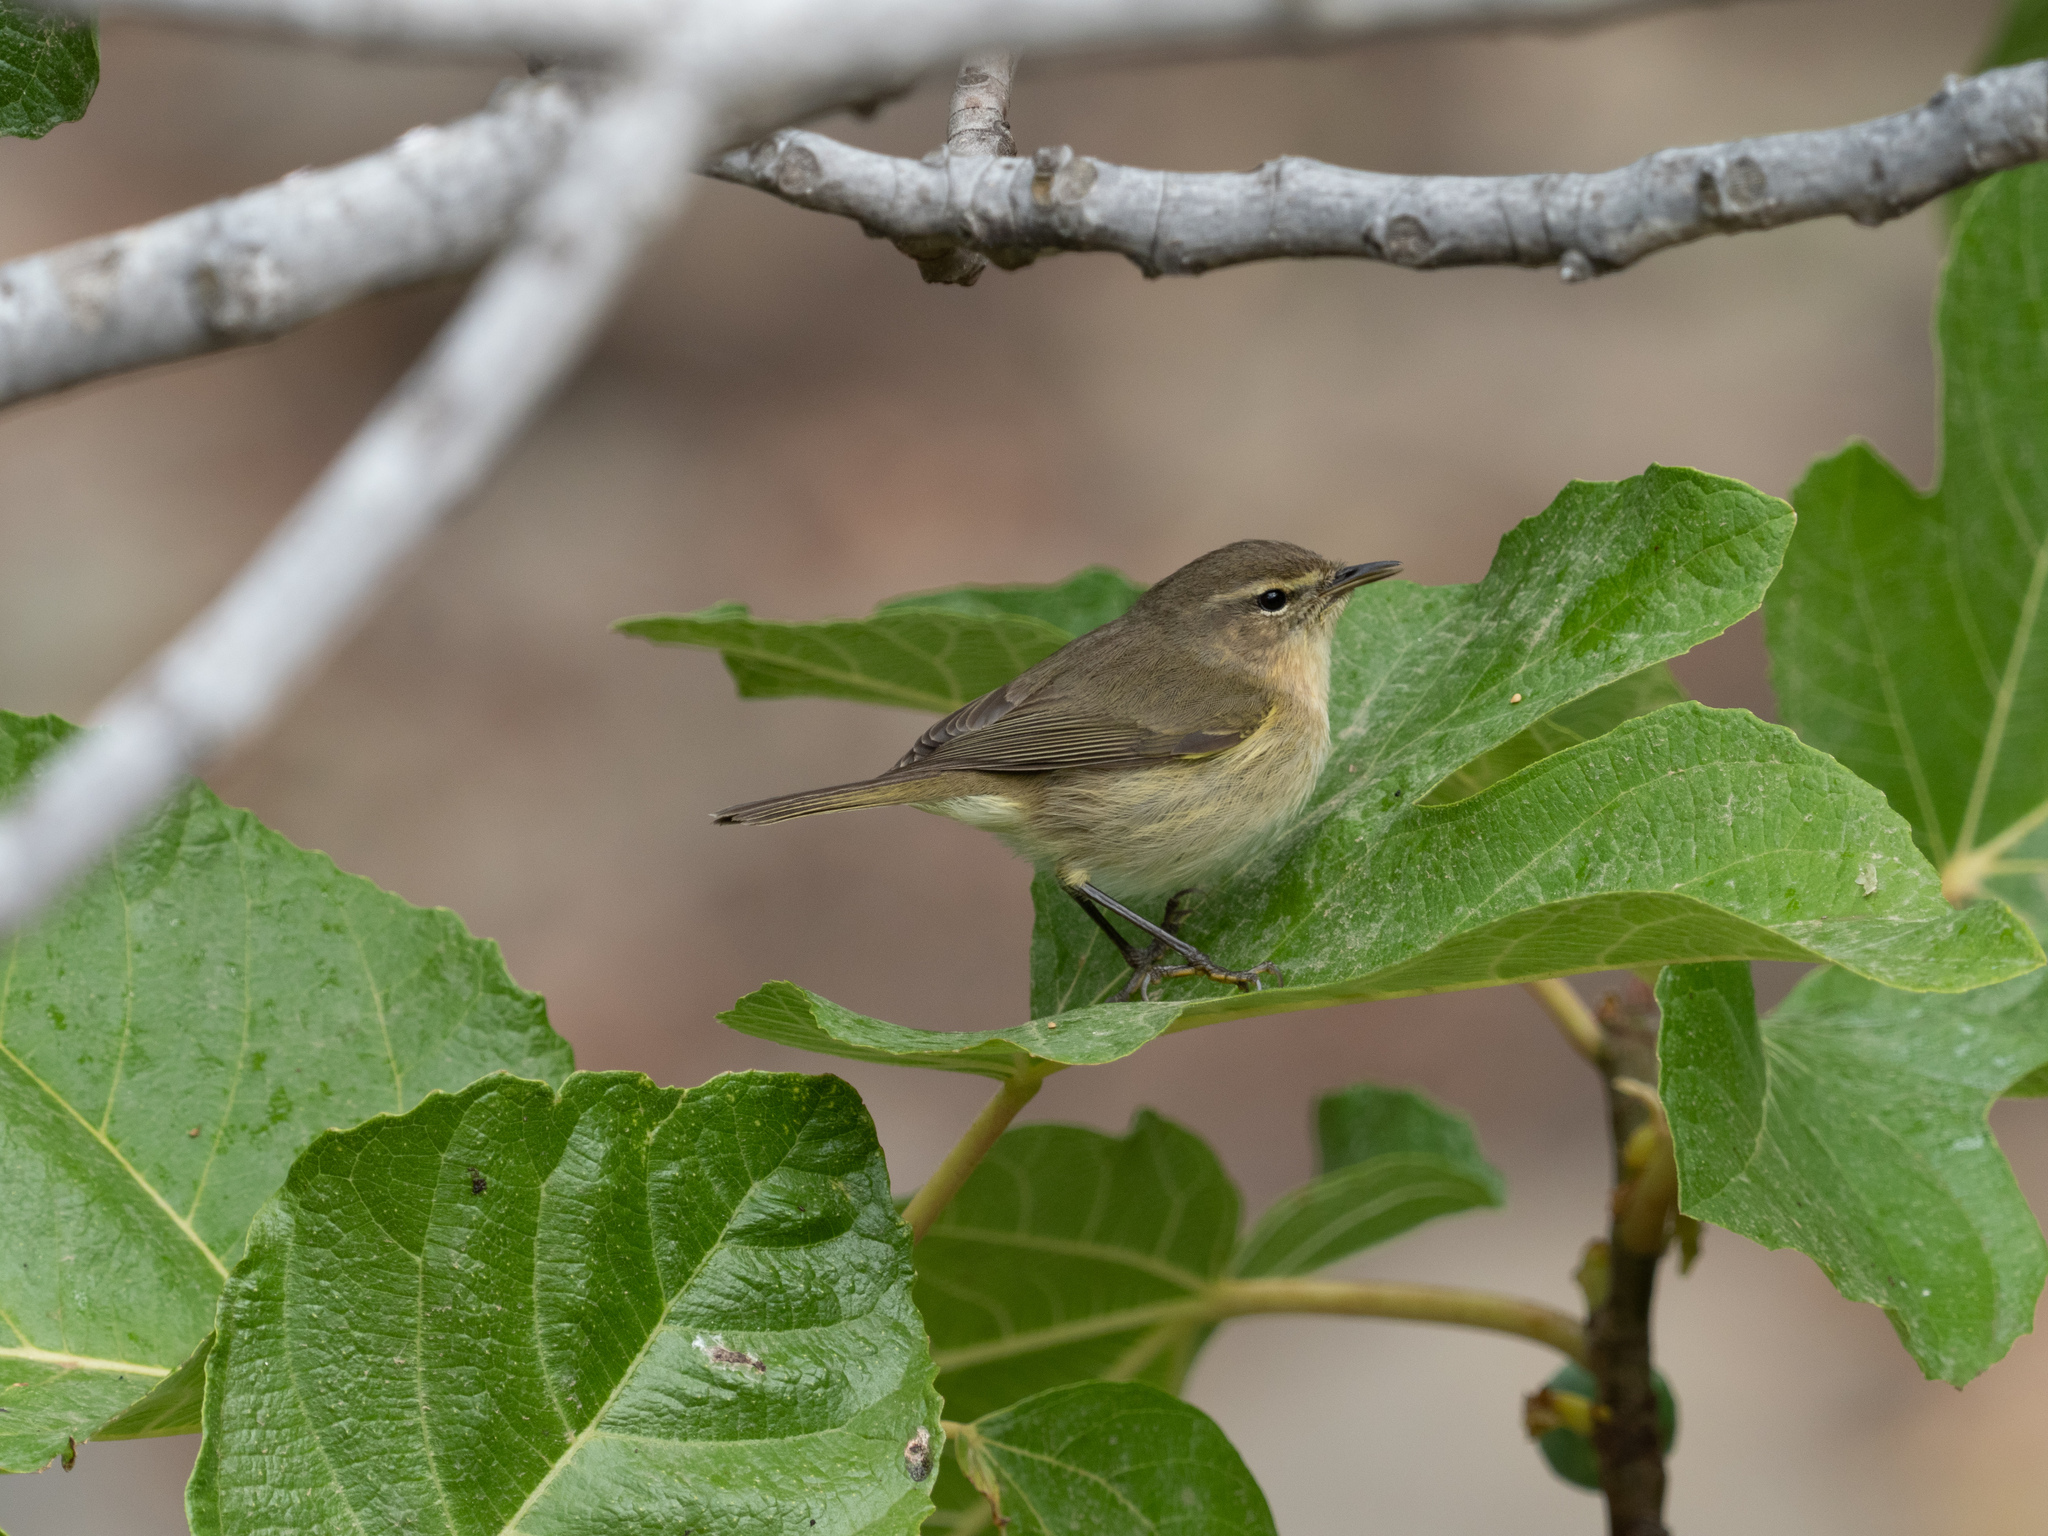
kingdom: Animalia
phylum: Chordata
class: Aves
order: Passeriformes
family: Phylloscopidae
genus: Phylloscopus
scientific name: Phylloscopus canariensis
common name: Canary islands chiffchaff
